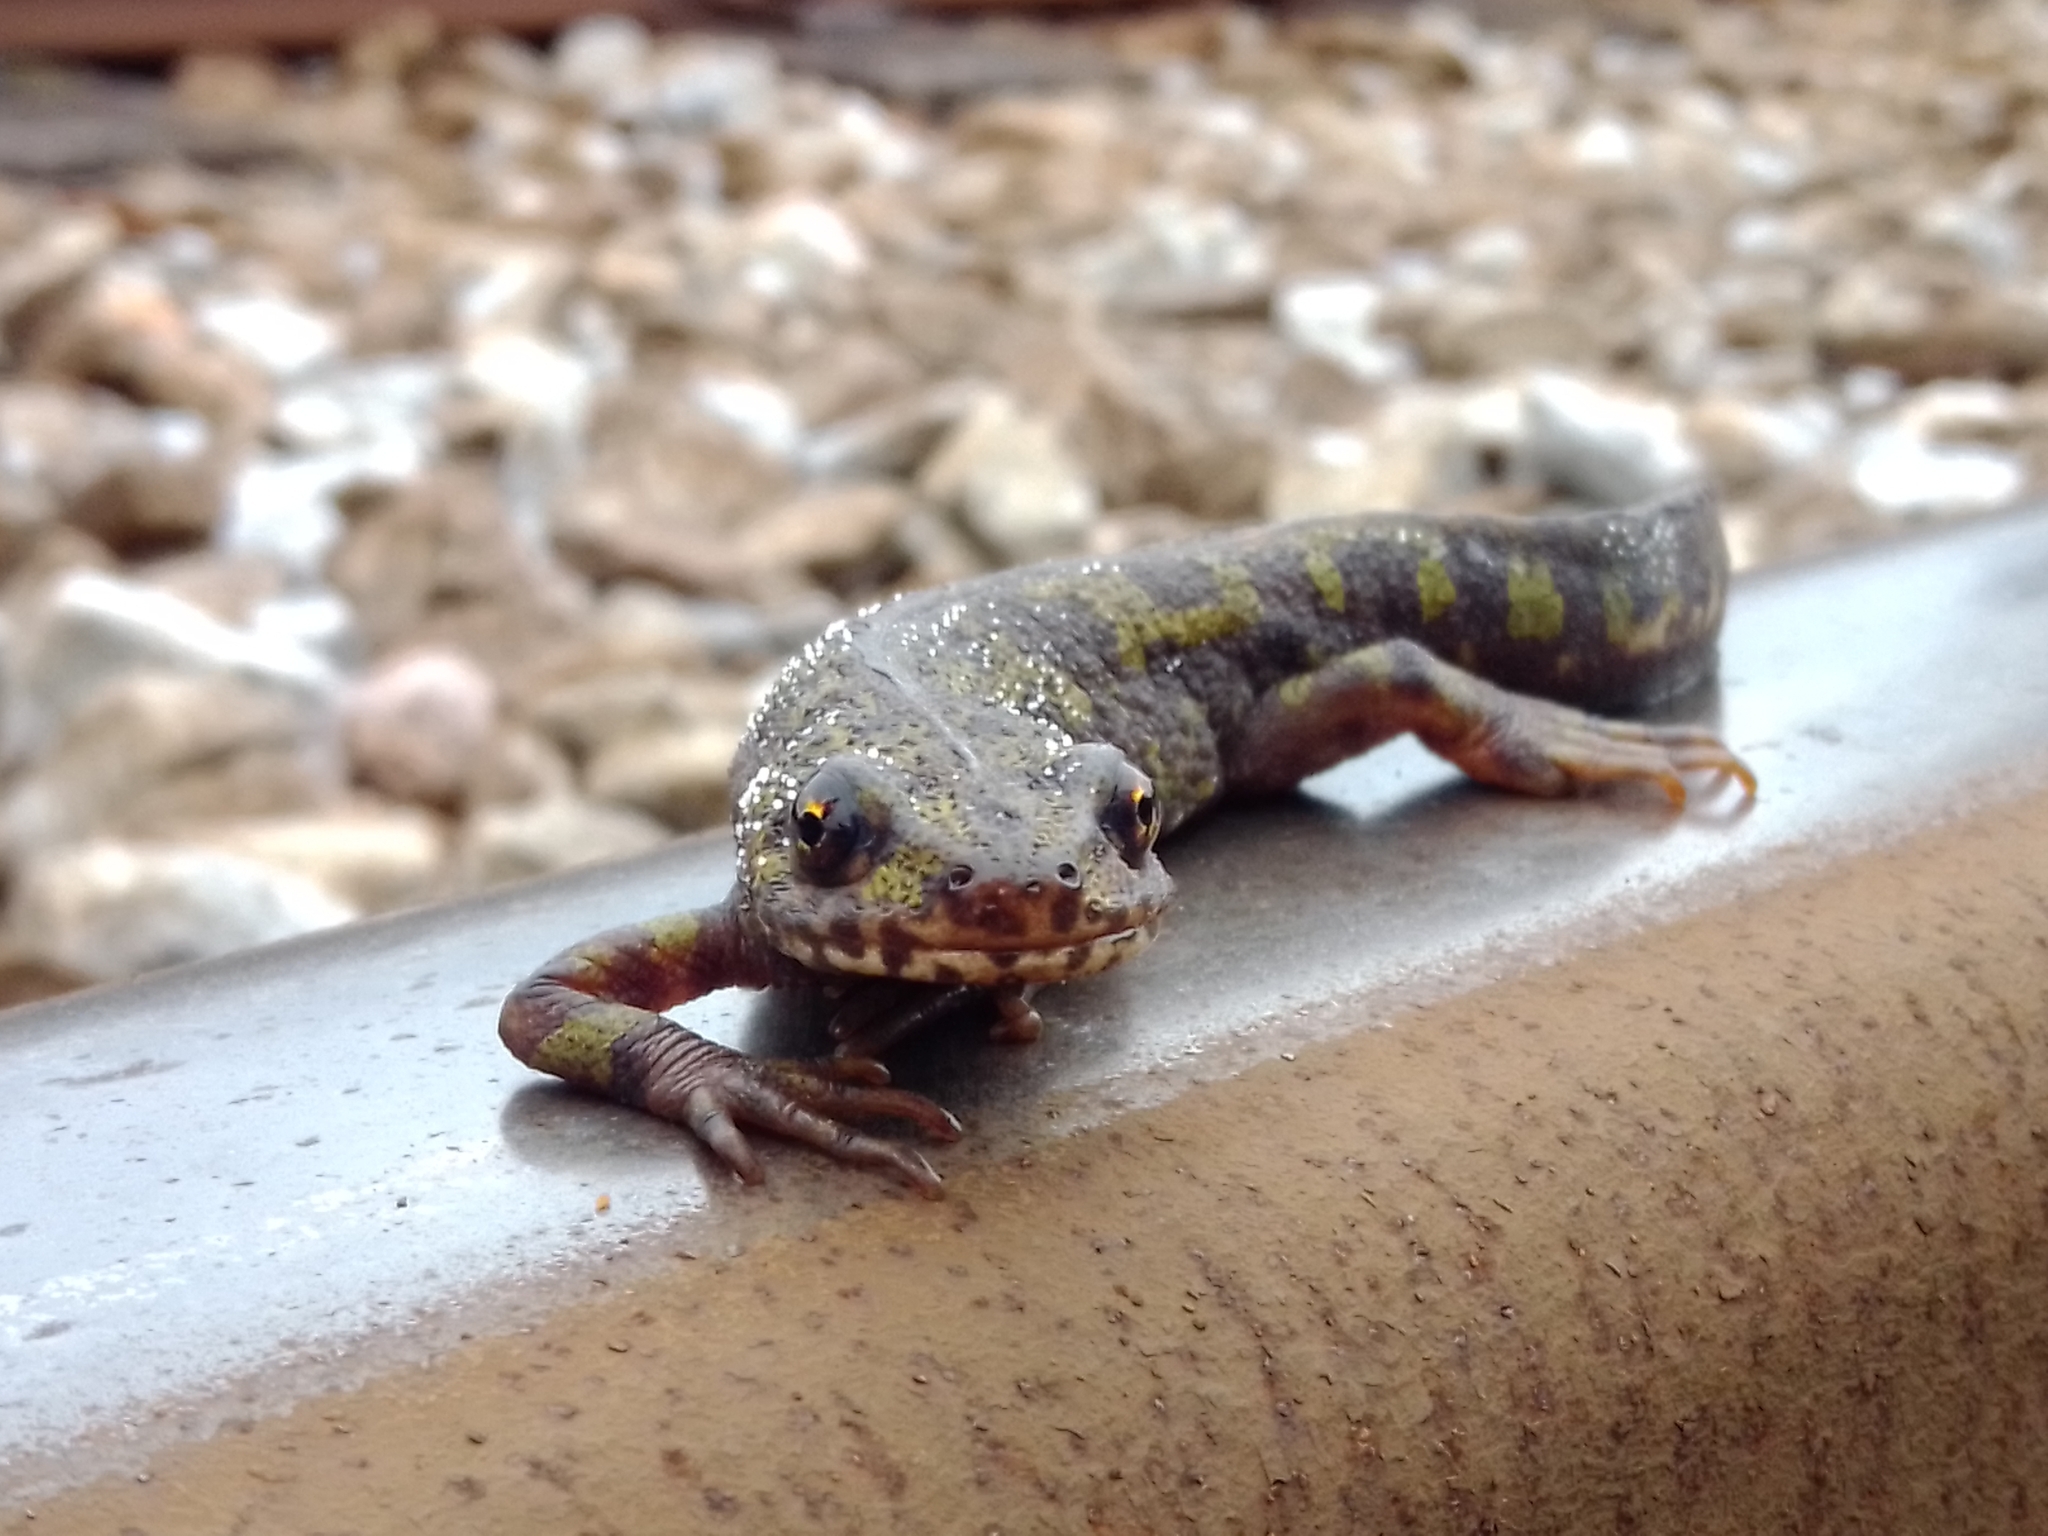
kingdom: Animalia
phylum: Chordata
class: Amphibia
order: Caudata
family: Salamandridae
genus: Triturus
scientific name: Triturus marmoratus
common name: Marbled newt
